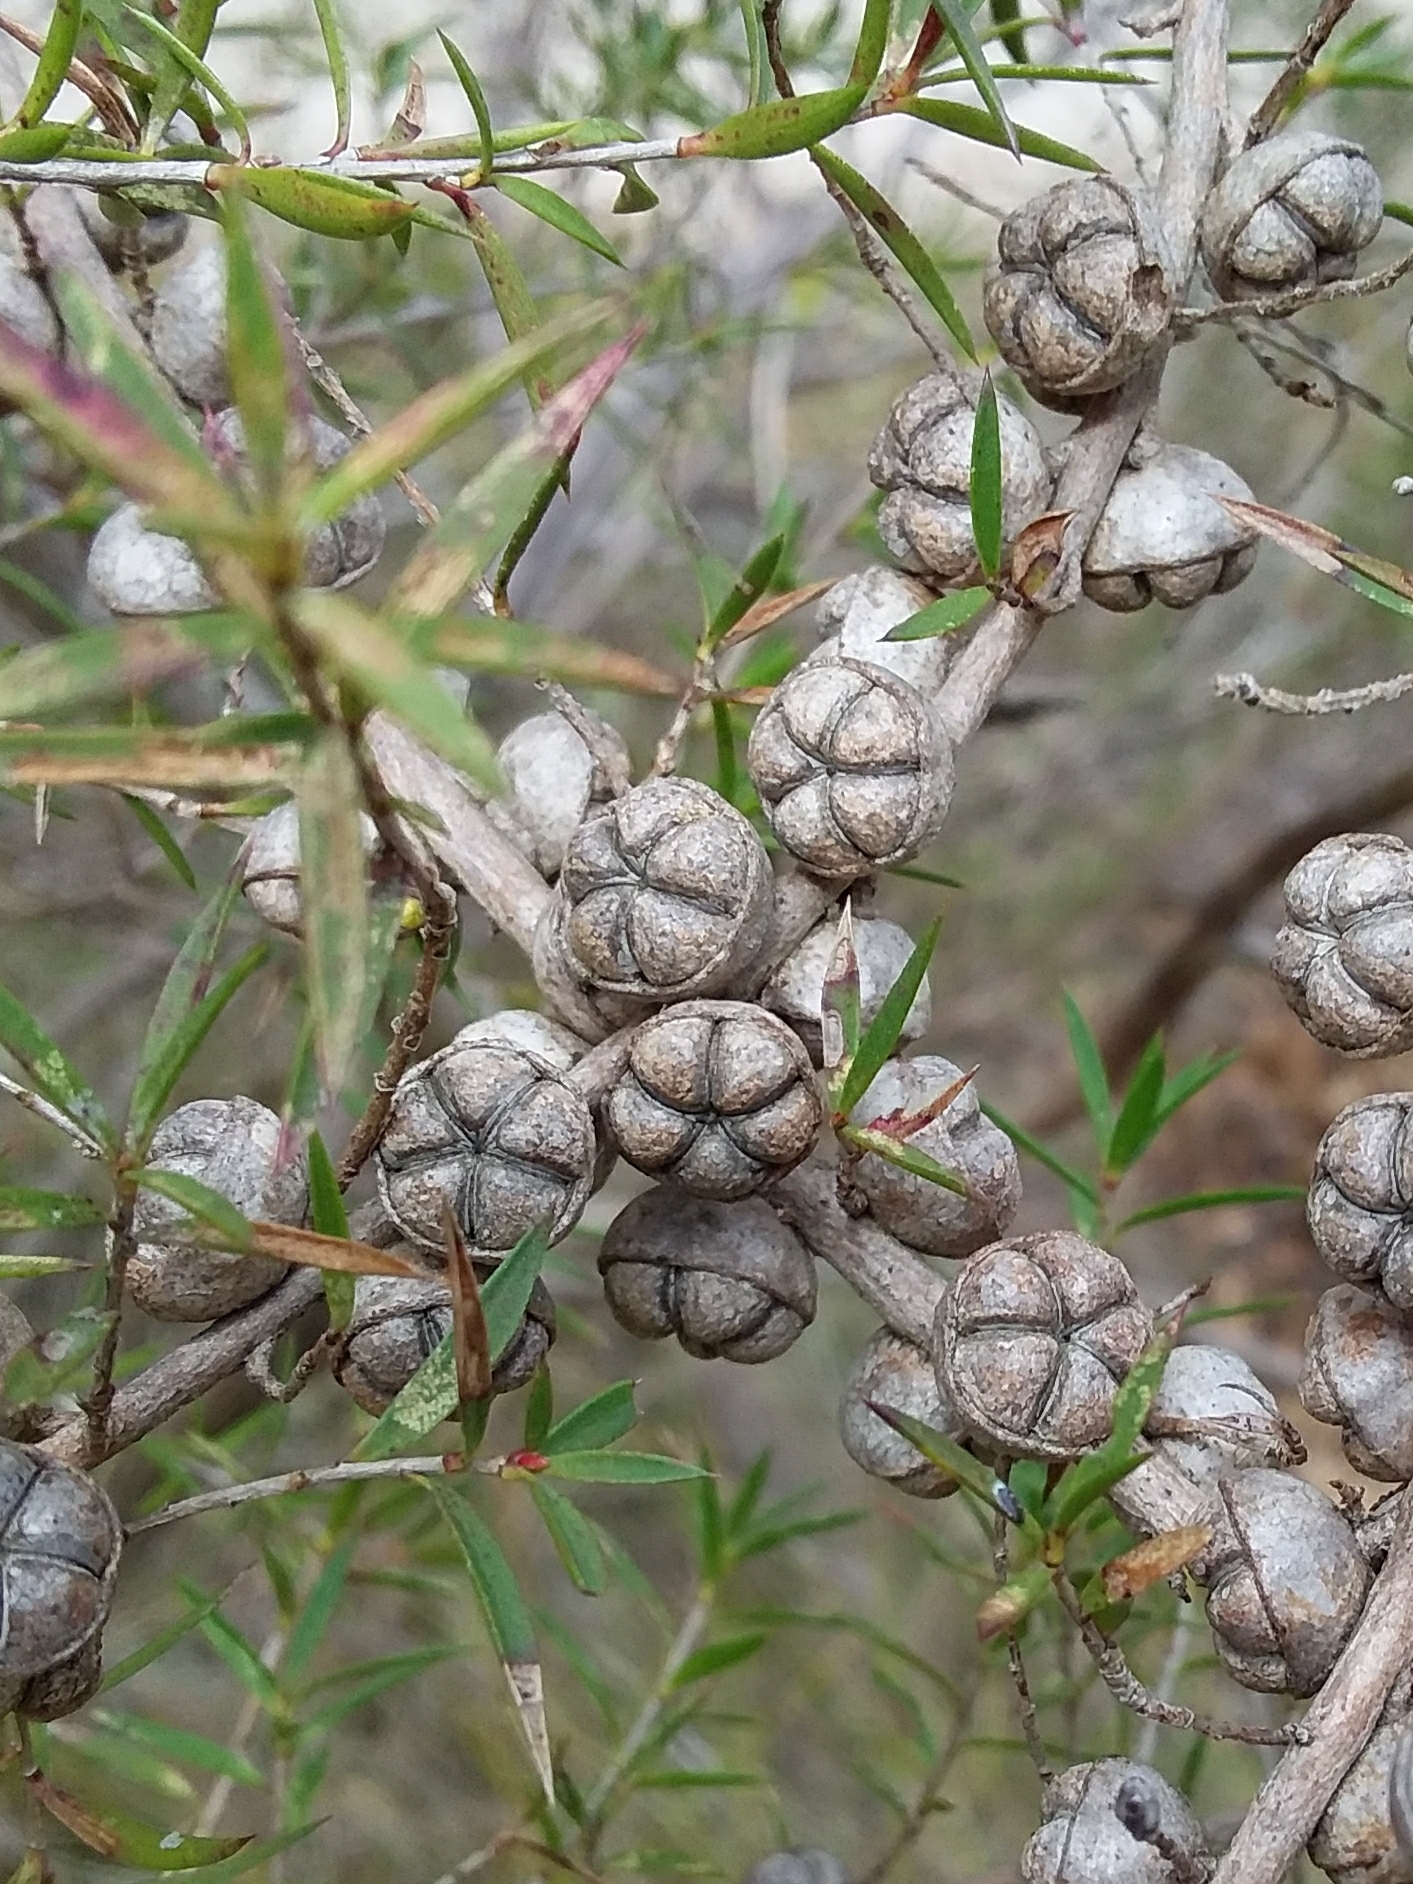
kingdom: Plantae
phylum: Tracheophyta
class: Magnoliopsida
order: Myrtales
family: Myrtaceae
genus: Leptospermum
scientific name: Leptospermum continentale
